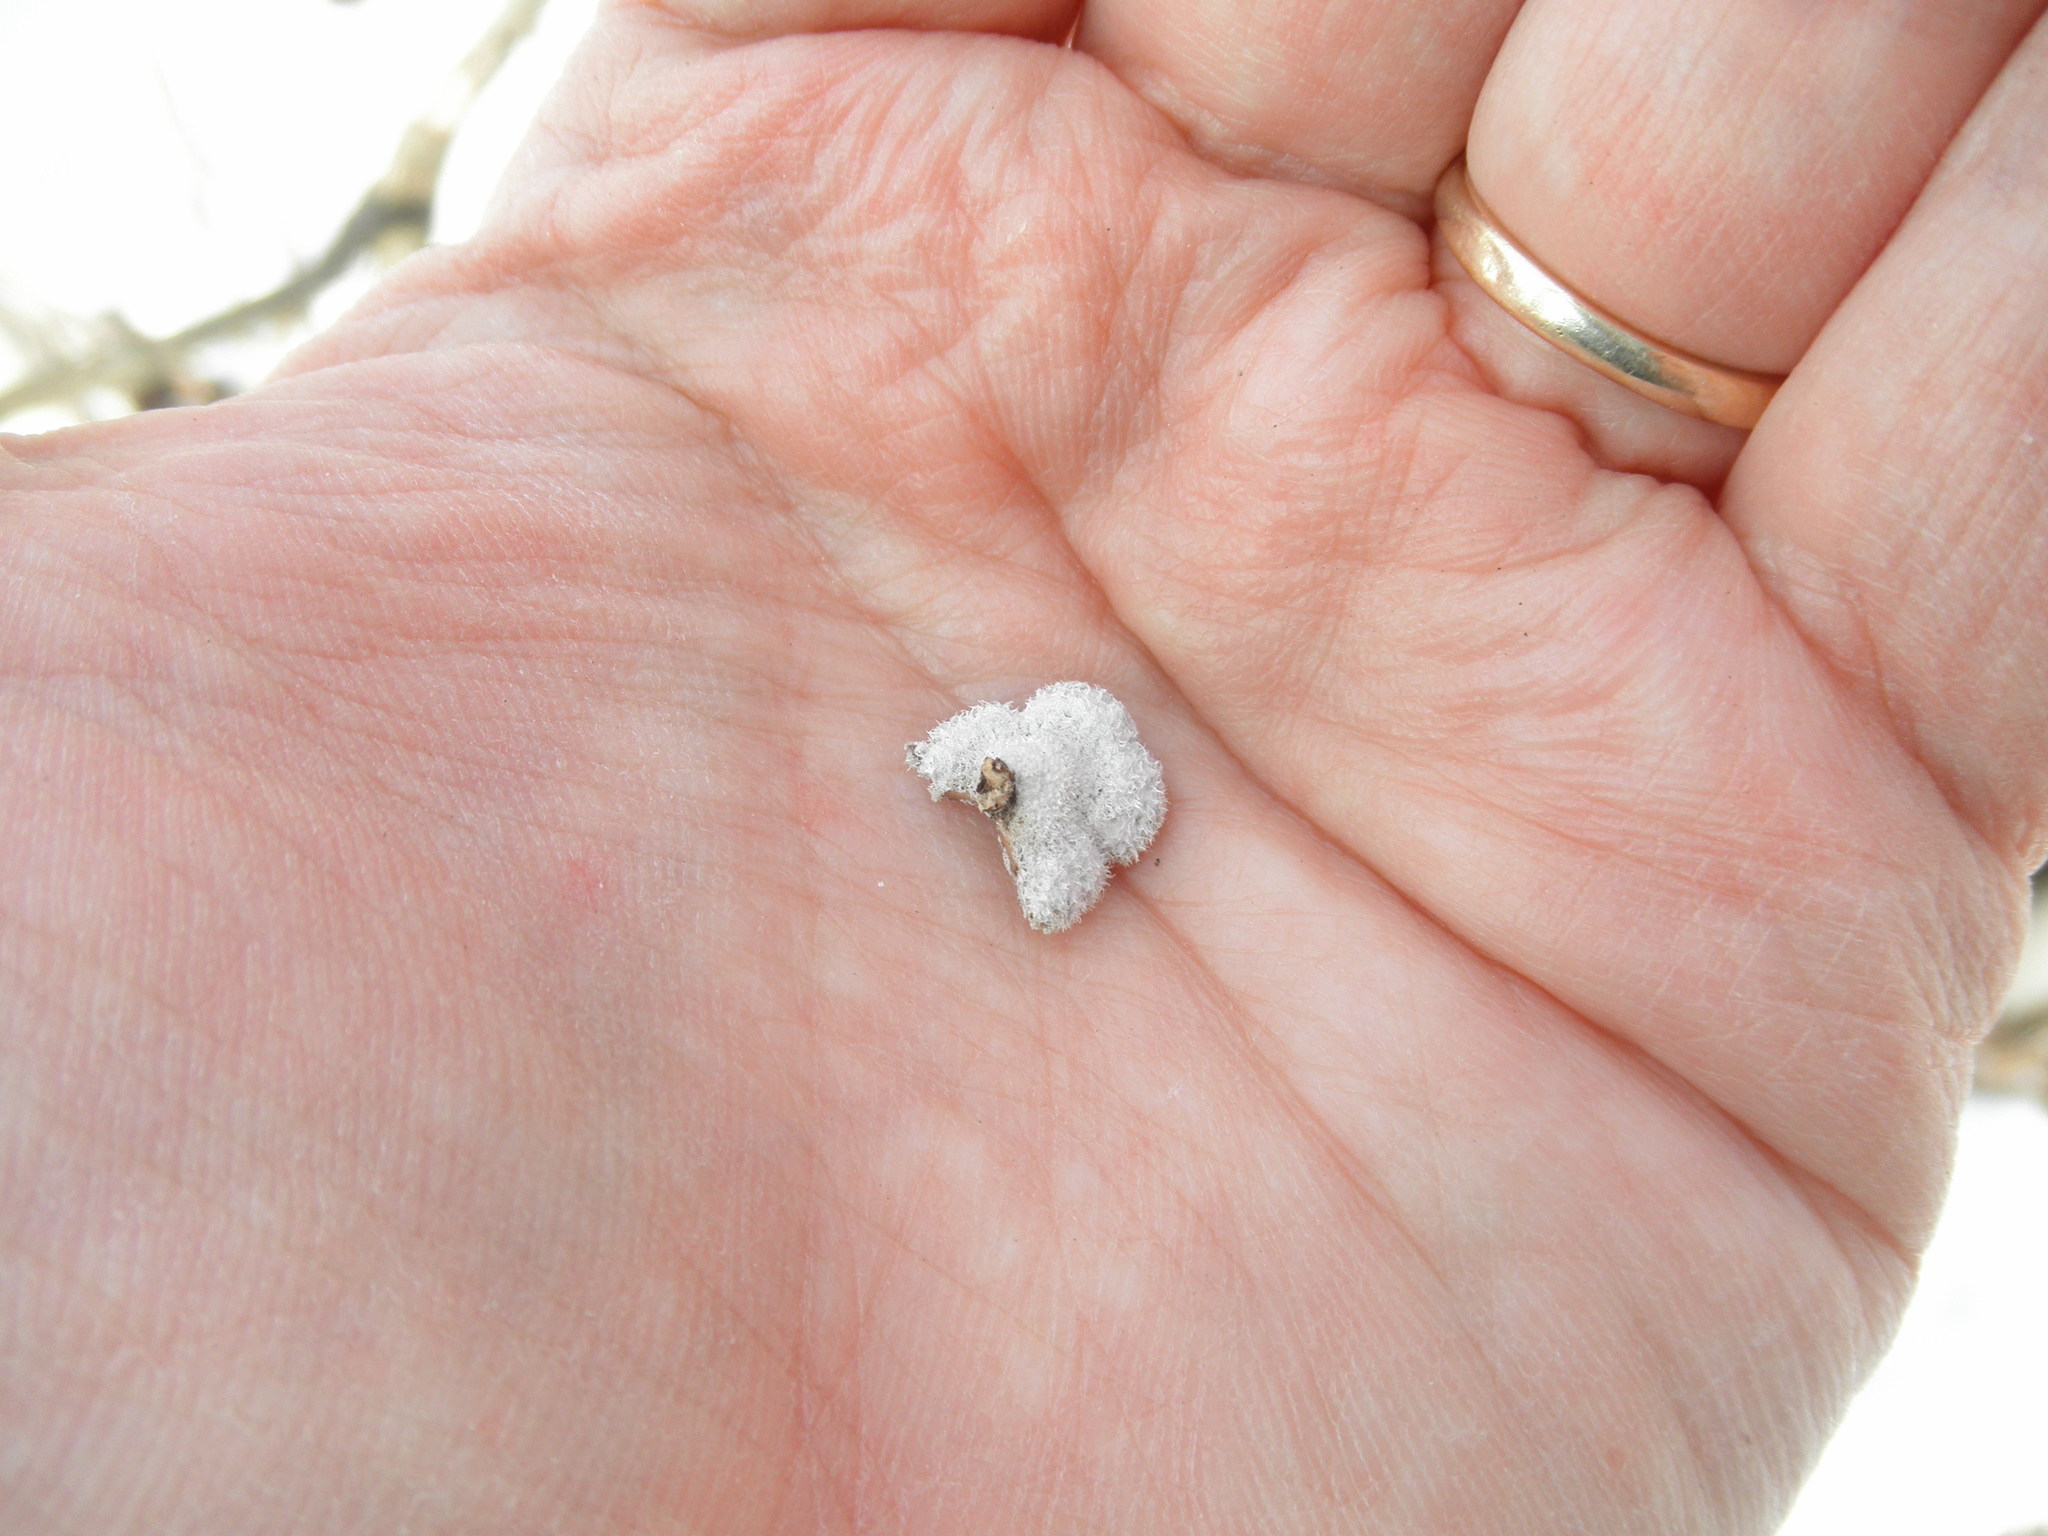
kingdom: Fungi
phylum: Basidiomycota
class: Agaricomycetes
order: Agaricales
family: Schizophyllaceae
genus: Schizophyllum
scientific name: Schizophyllum commune
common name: Common porecrust
